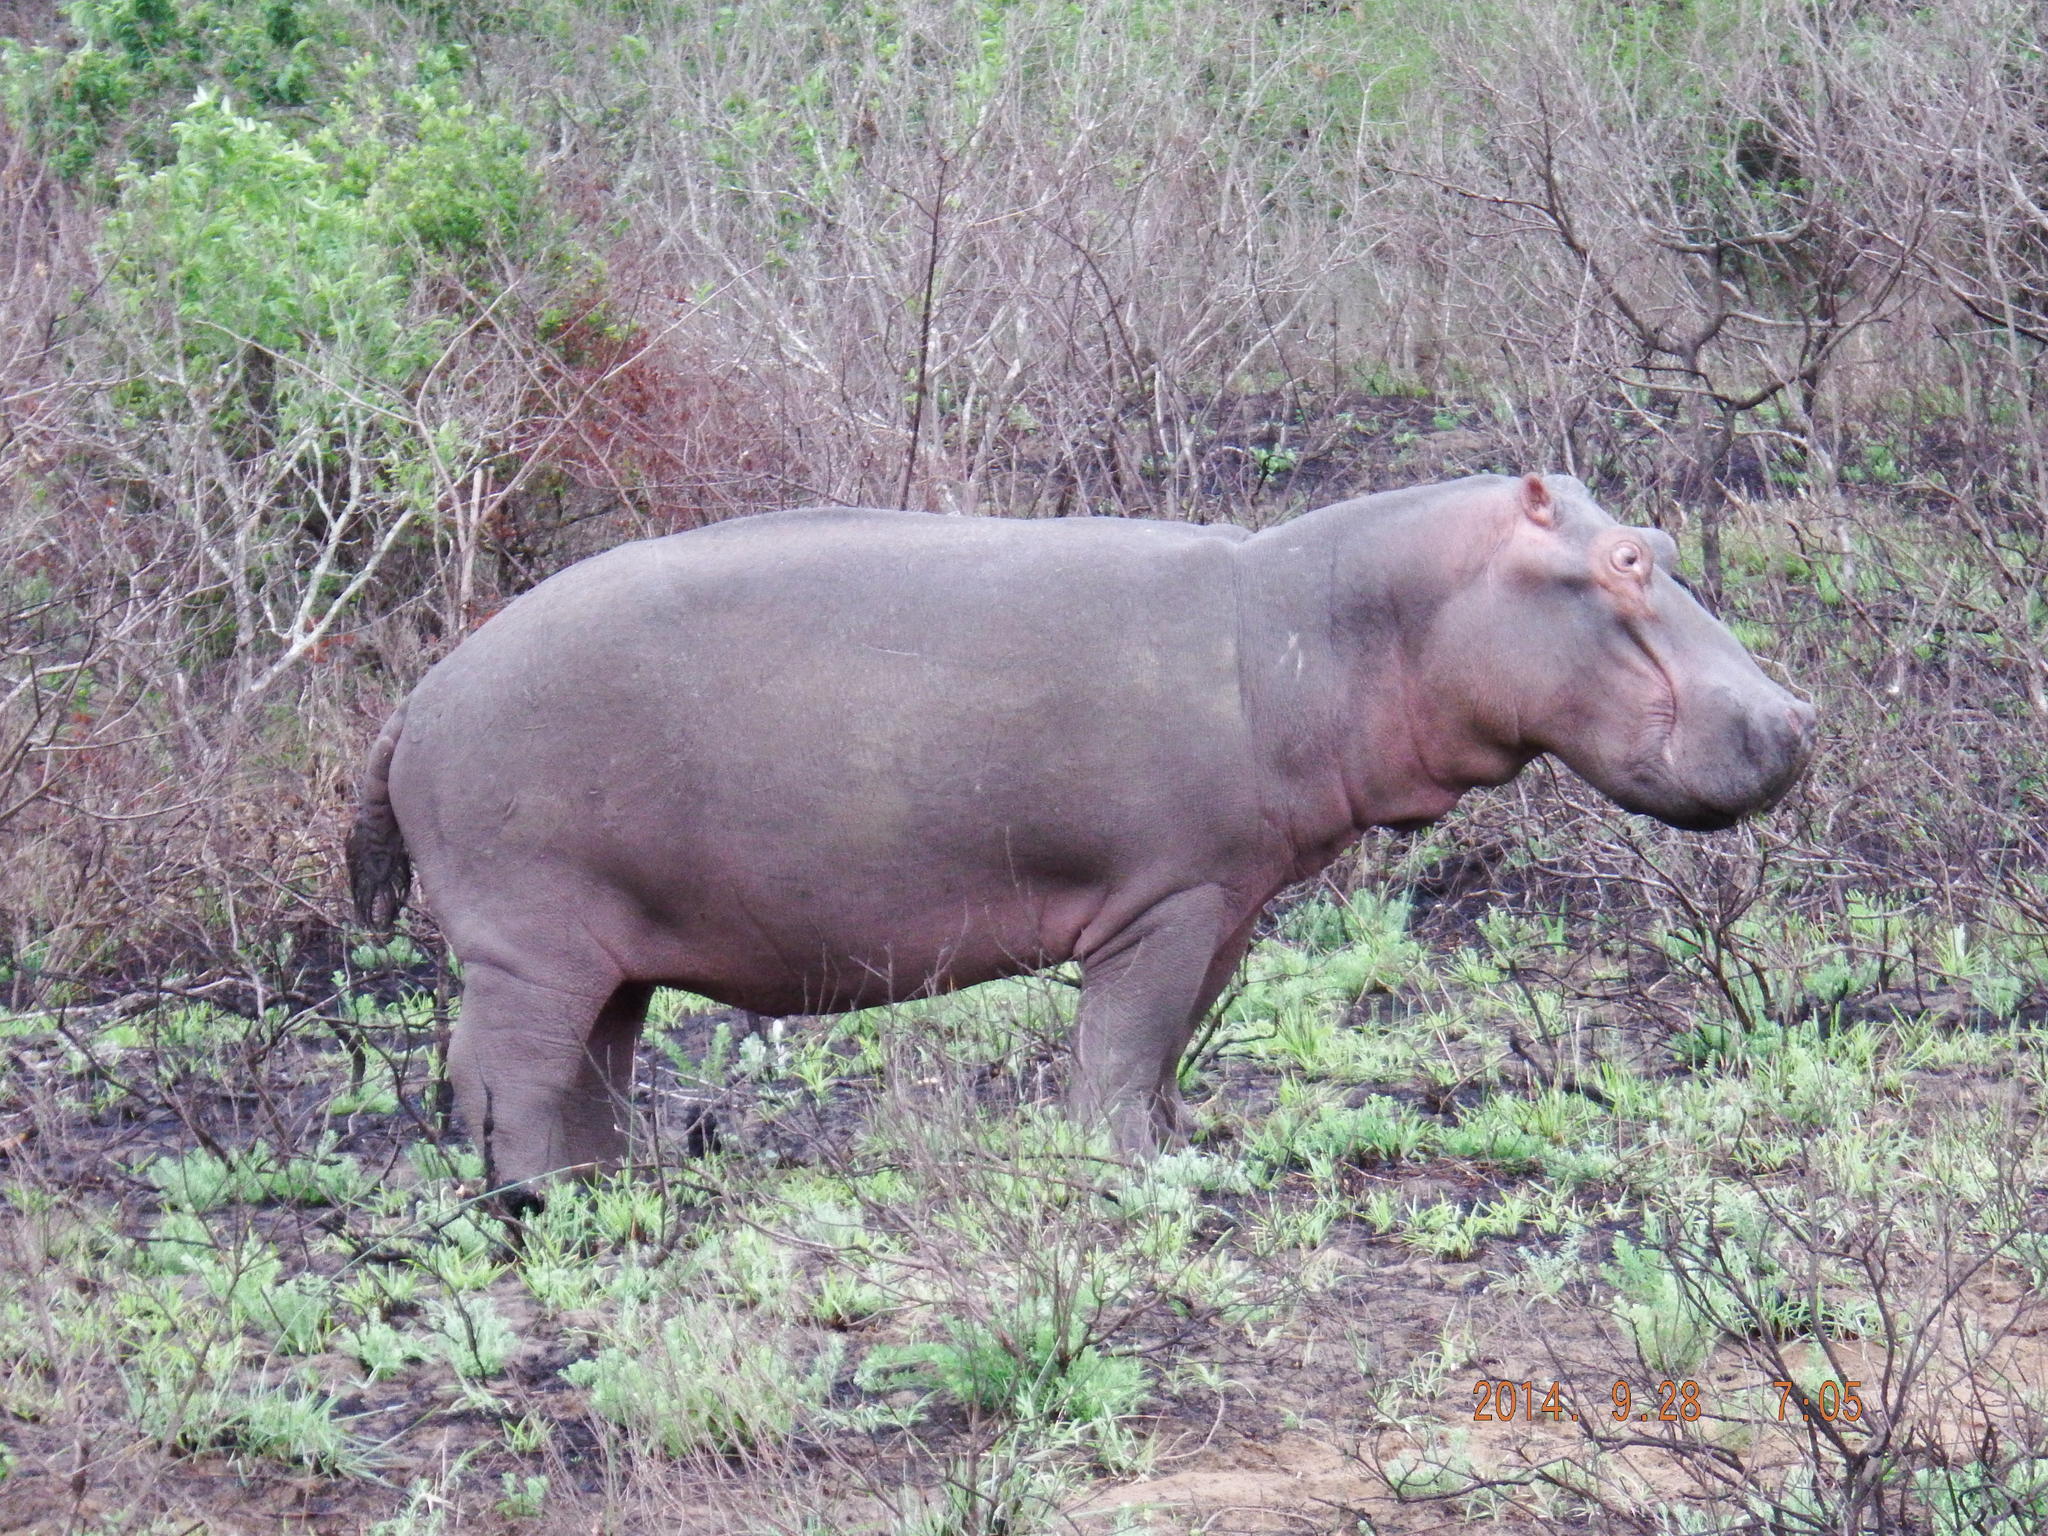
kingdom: Animalia
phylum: Chordata
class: Mammalia
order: Artiodactyla
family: Hippopotamidae
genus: Hippopotamus
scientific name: Hippopotamus amphibius
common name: Common hippopotamus
